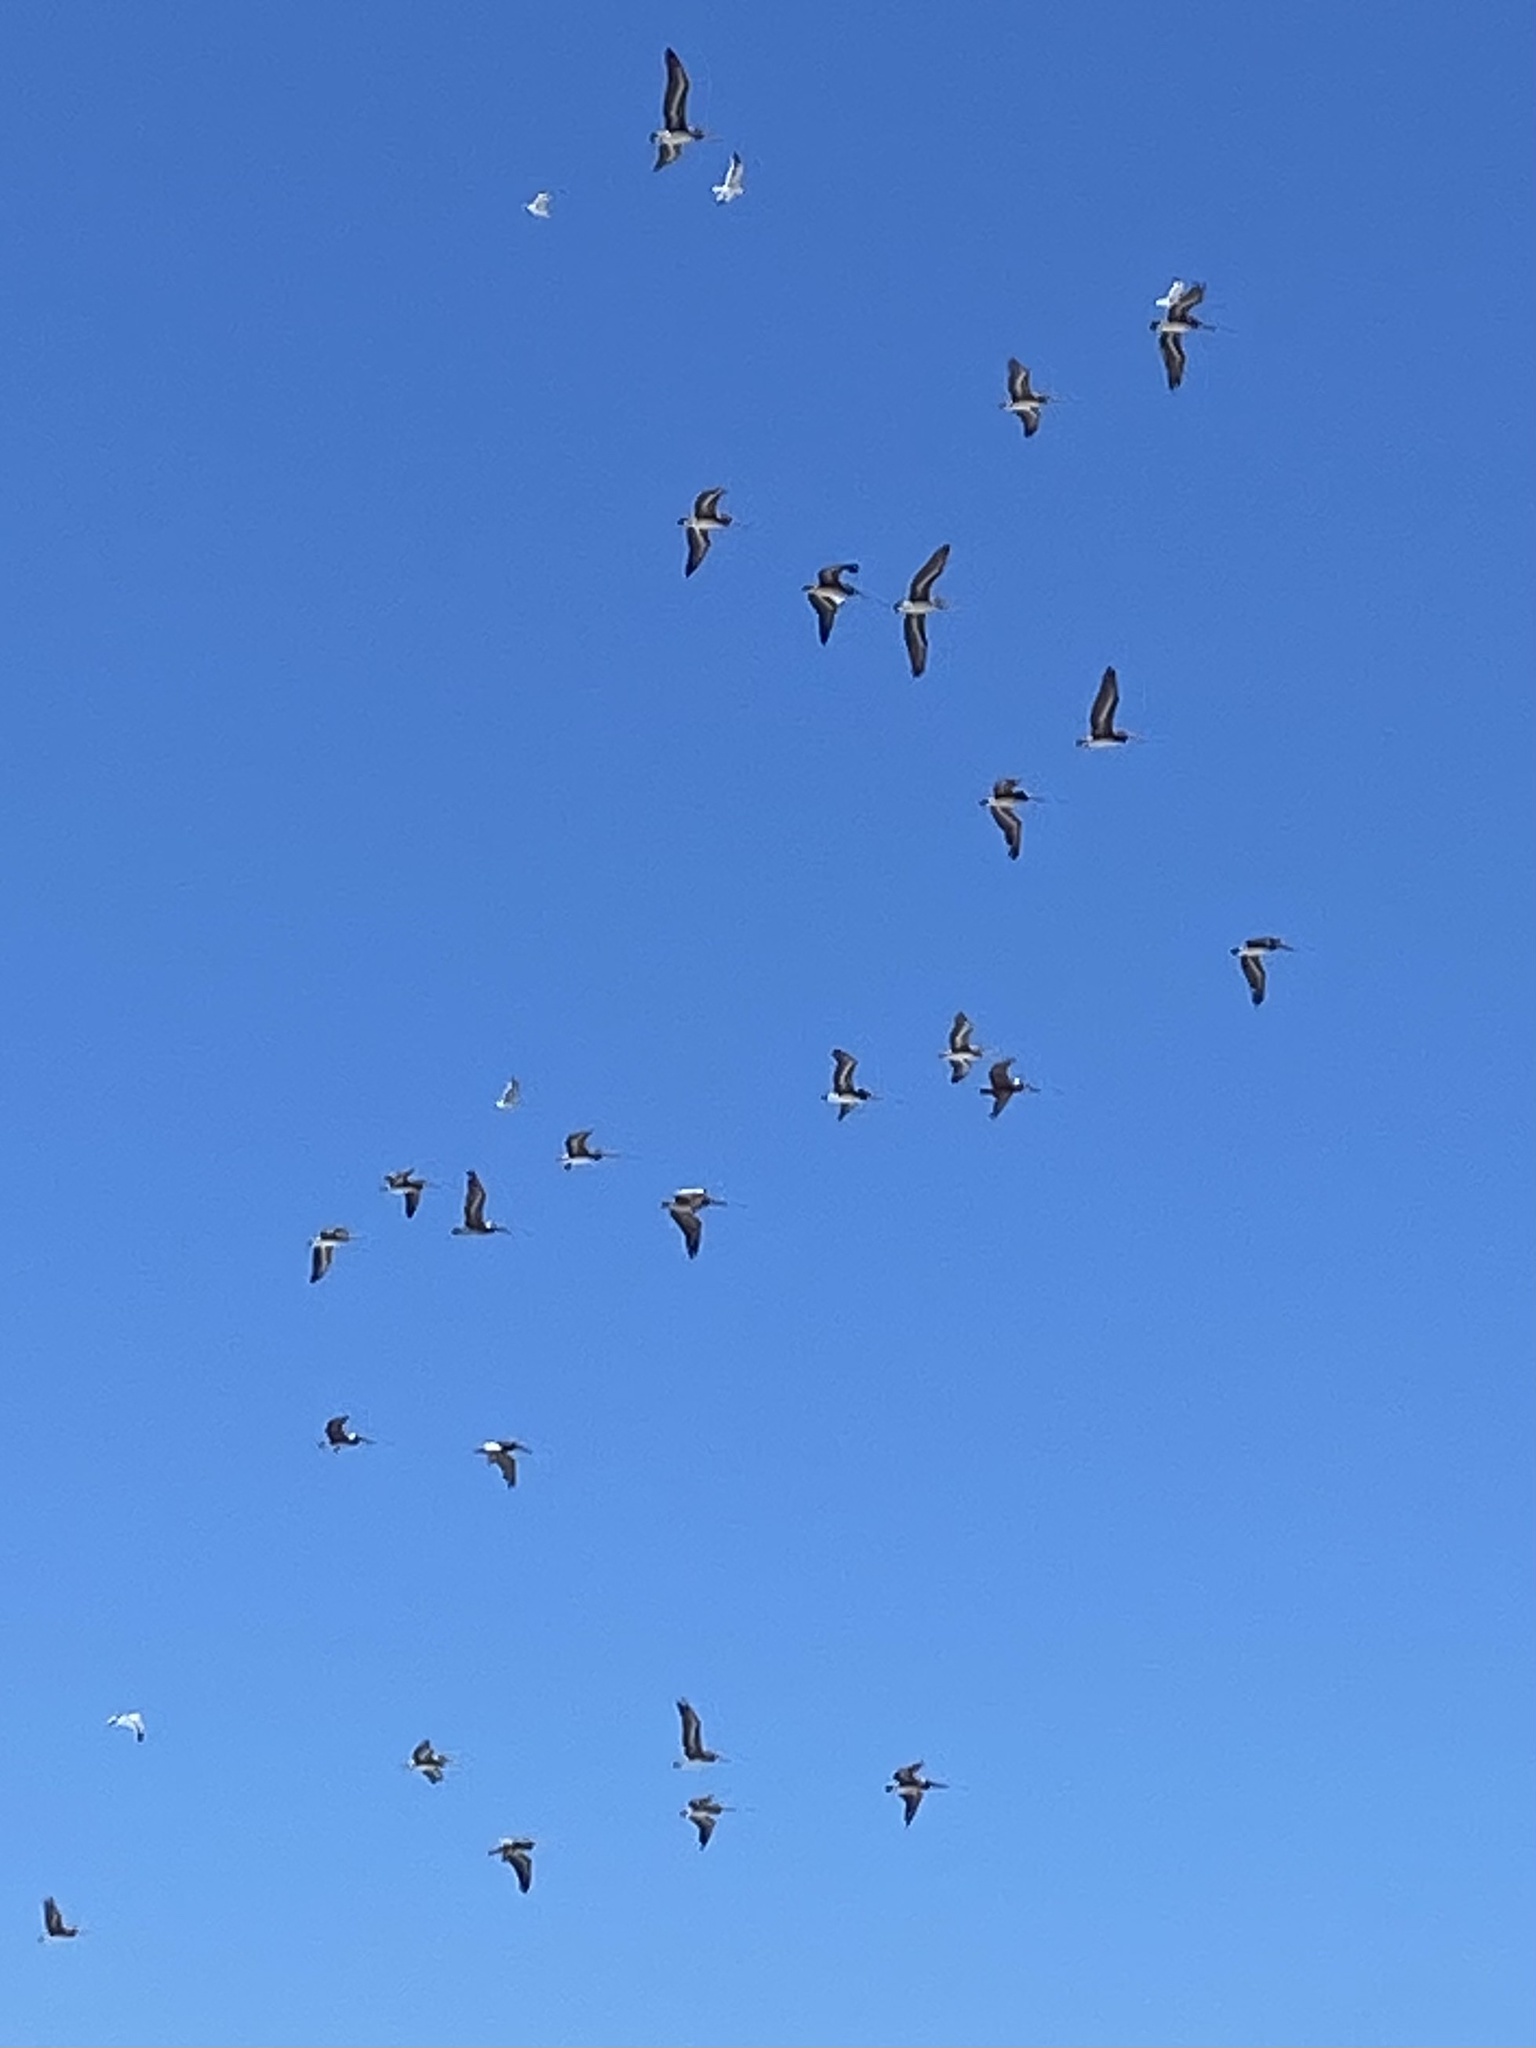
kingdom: Animalia
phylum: Chordata
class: Aves
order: Pelecaniformes
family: Pelecanidae
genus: Pelecanus
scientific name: Pelecanus occidentalis
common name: Brown pelican
